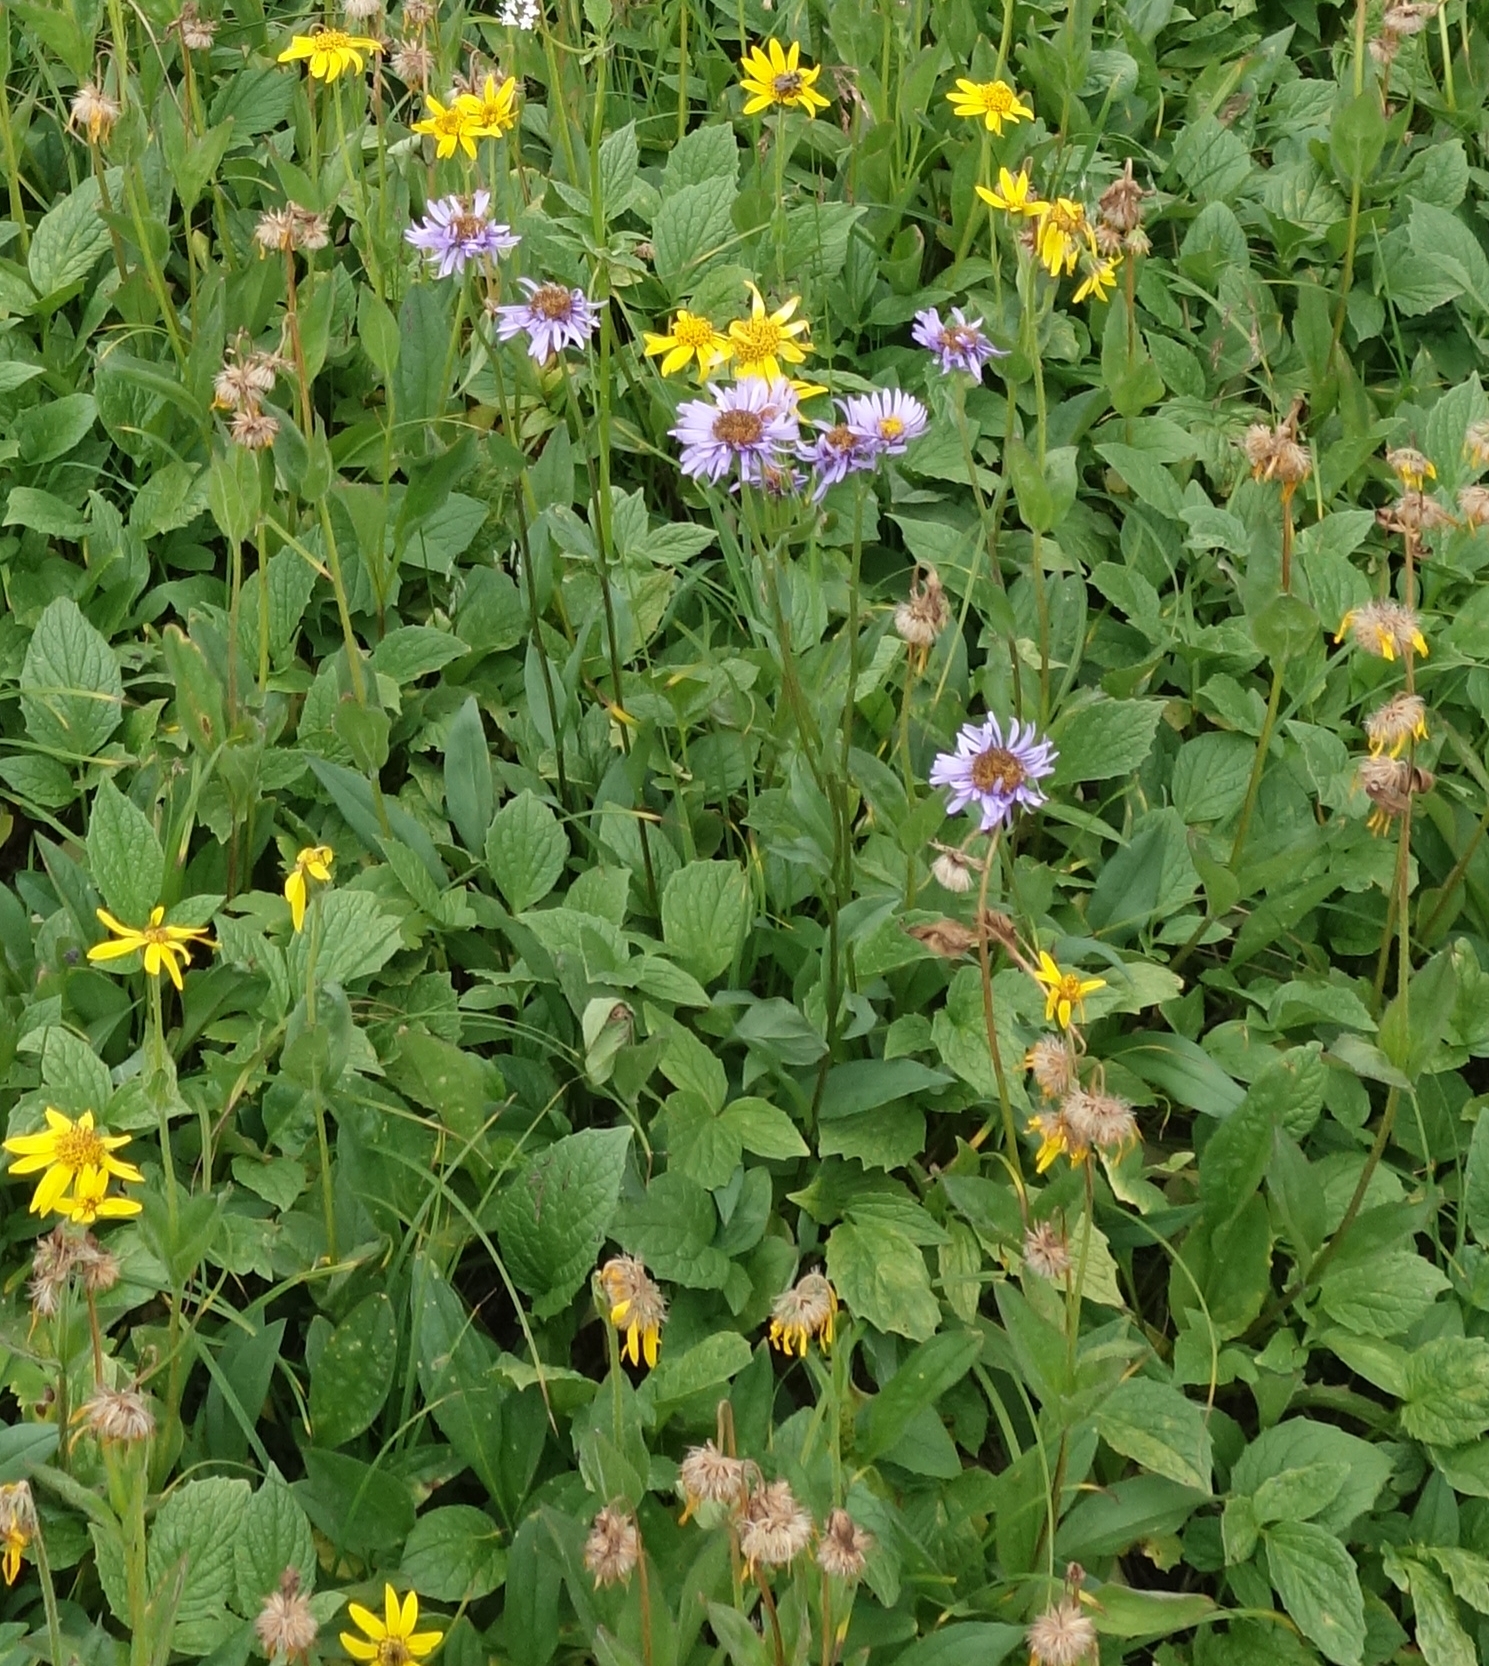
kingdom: Plantae
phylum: Tracheophyta
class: Magnoliopsida
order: Asterales
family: Asteraceae
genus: Erigeron
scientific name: Erigeron glacialis
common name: Subalpine fleabane
